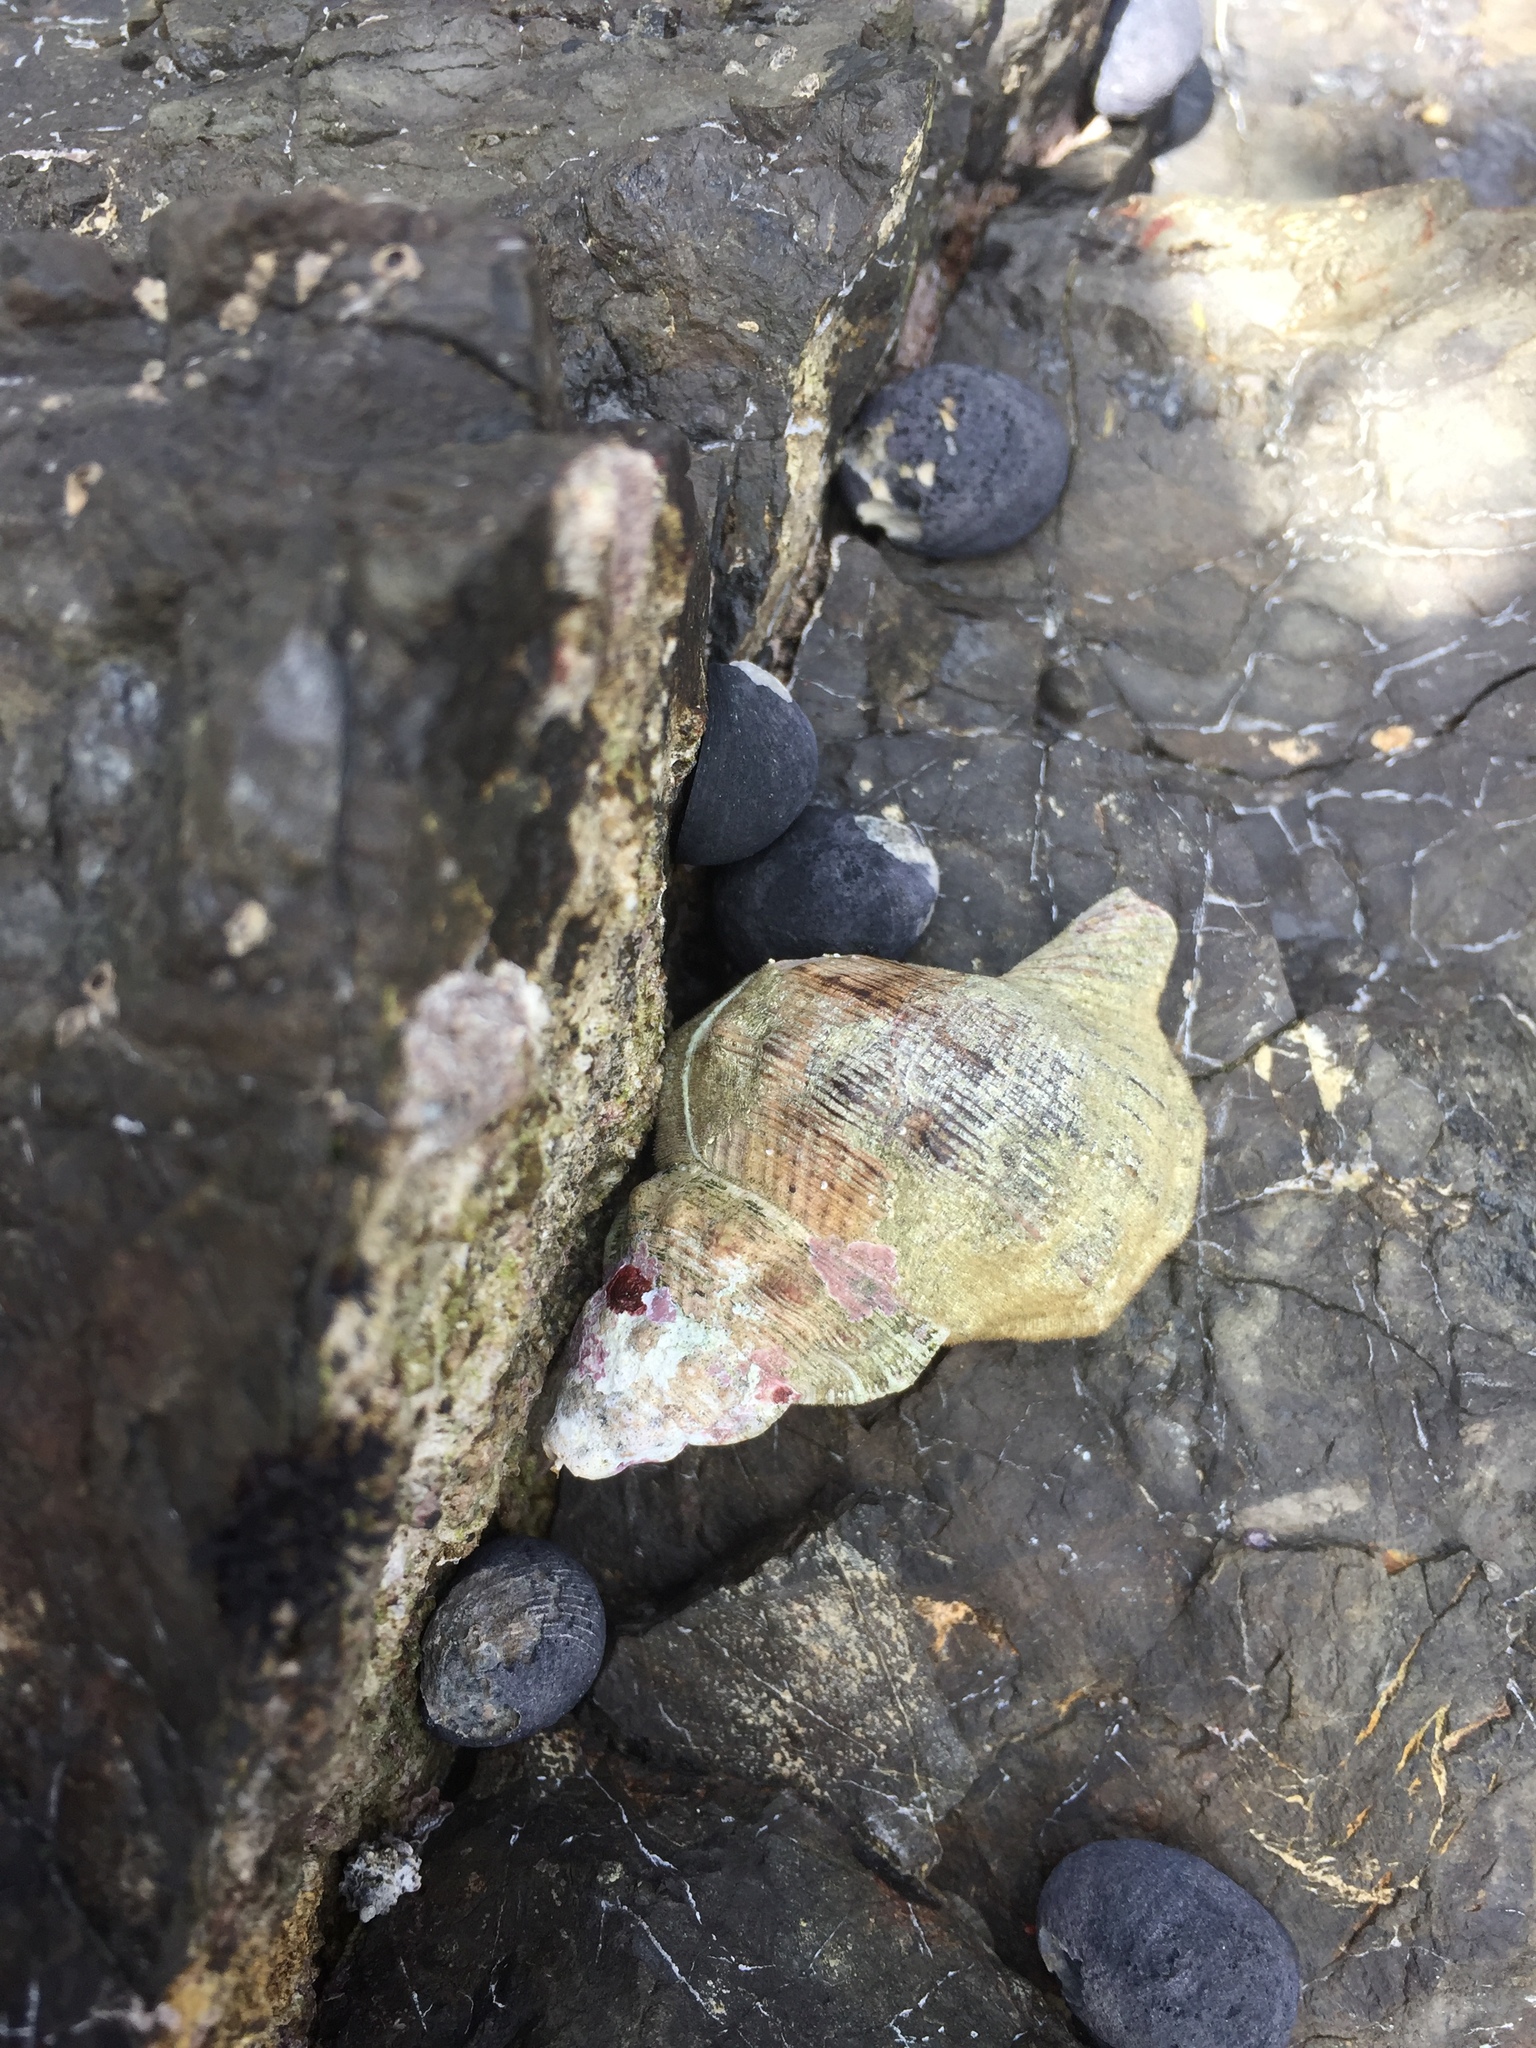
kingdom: Animalia
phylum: Mollusca
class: Gastropoda
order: Littorinimorpha
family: Ranellidae
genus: Ranella
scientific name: Ranella australasia
